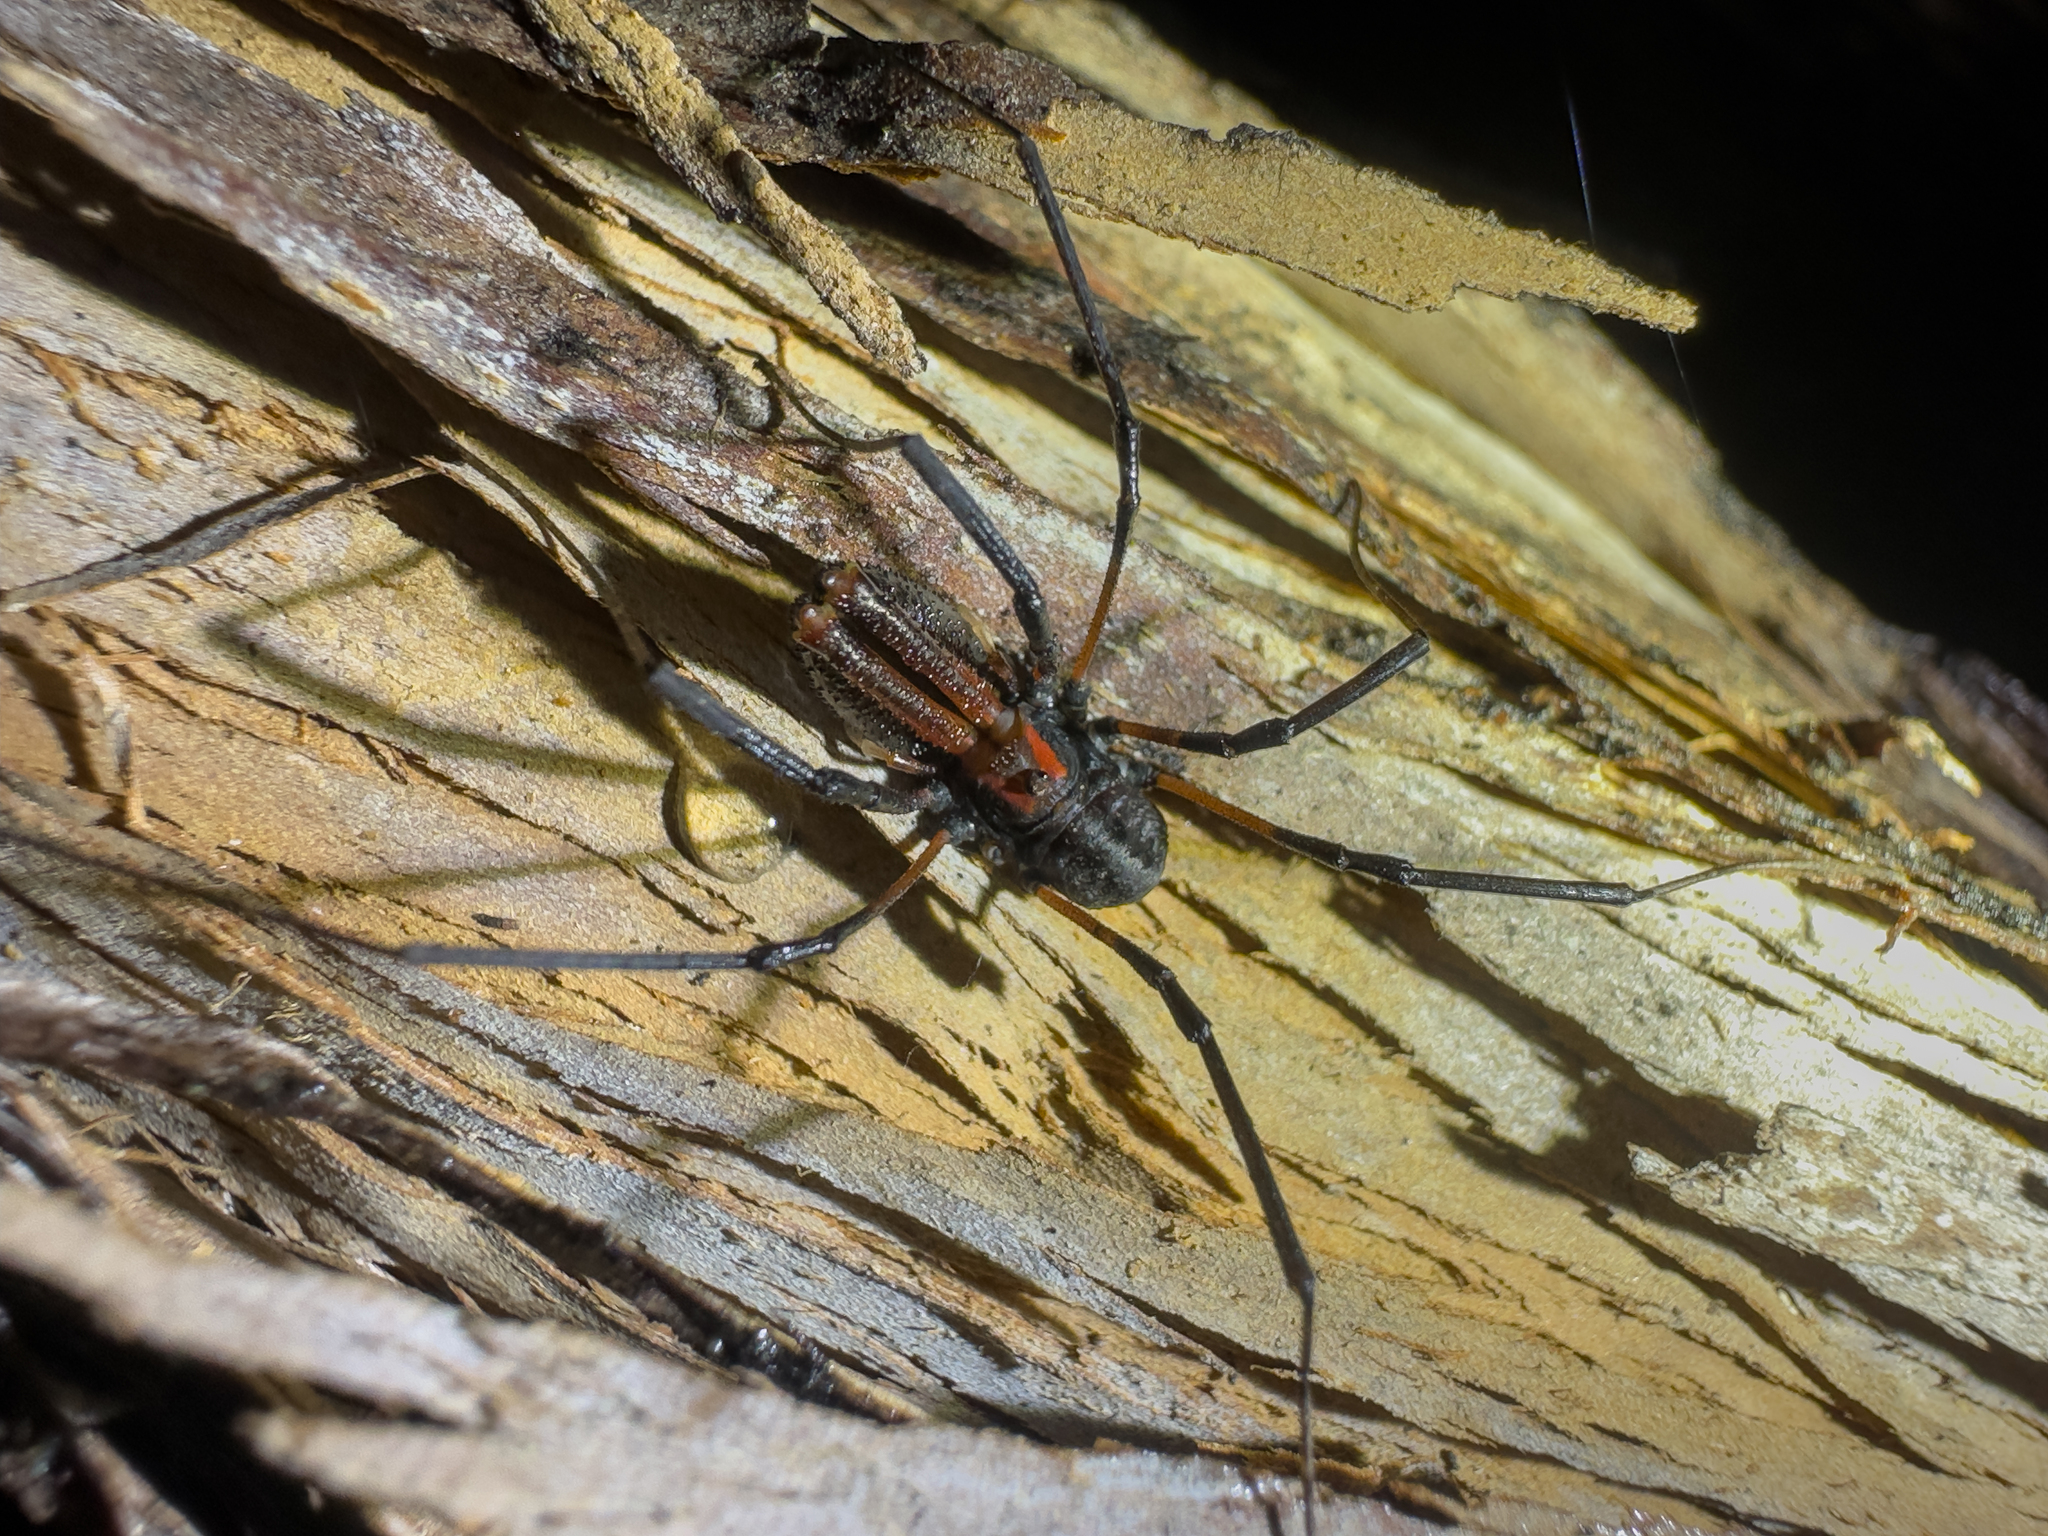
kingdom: Animalia
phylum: Arthropoda
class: Arachnida
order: Opiliones
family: Neopilionidae
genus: Forsteropsalis
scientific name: Forsteropsalis chiltoni
